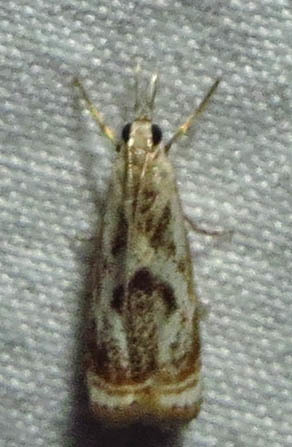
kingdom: Animalia
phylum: Arthropoda
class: Insecta
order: Lepidoptera
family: Crambidae
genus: Microcrambus
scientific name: Microcrambus elegans
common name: Elegant grass-veneer
